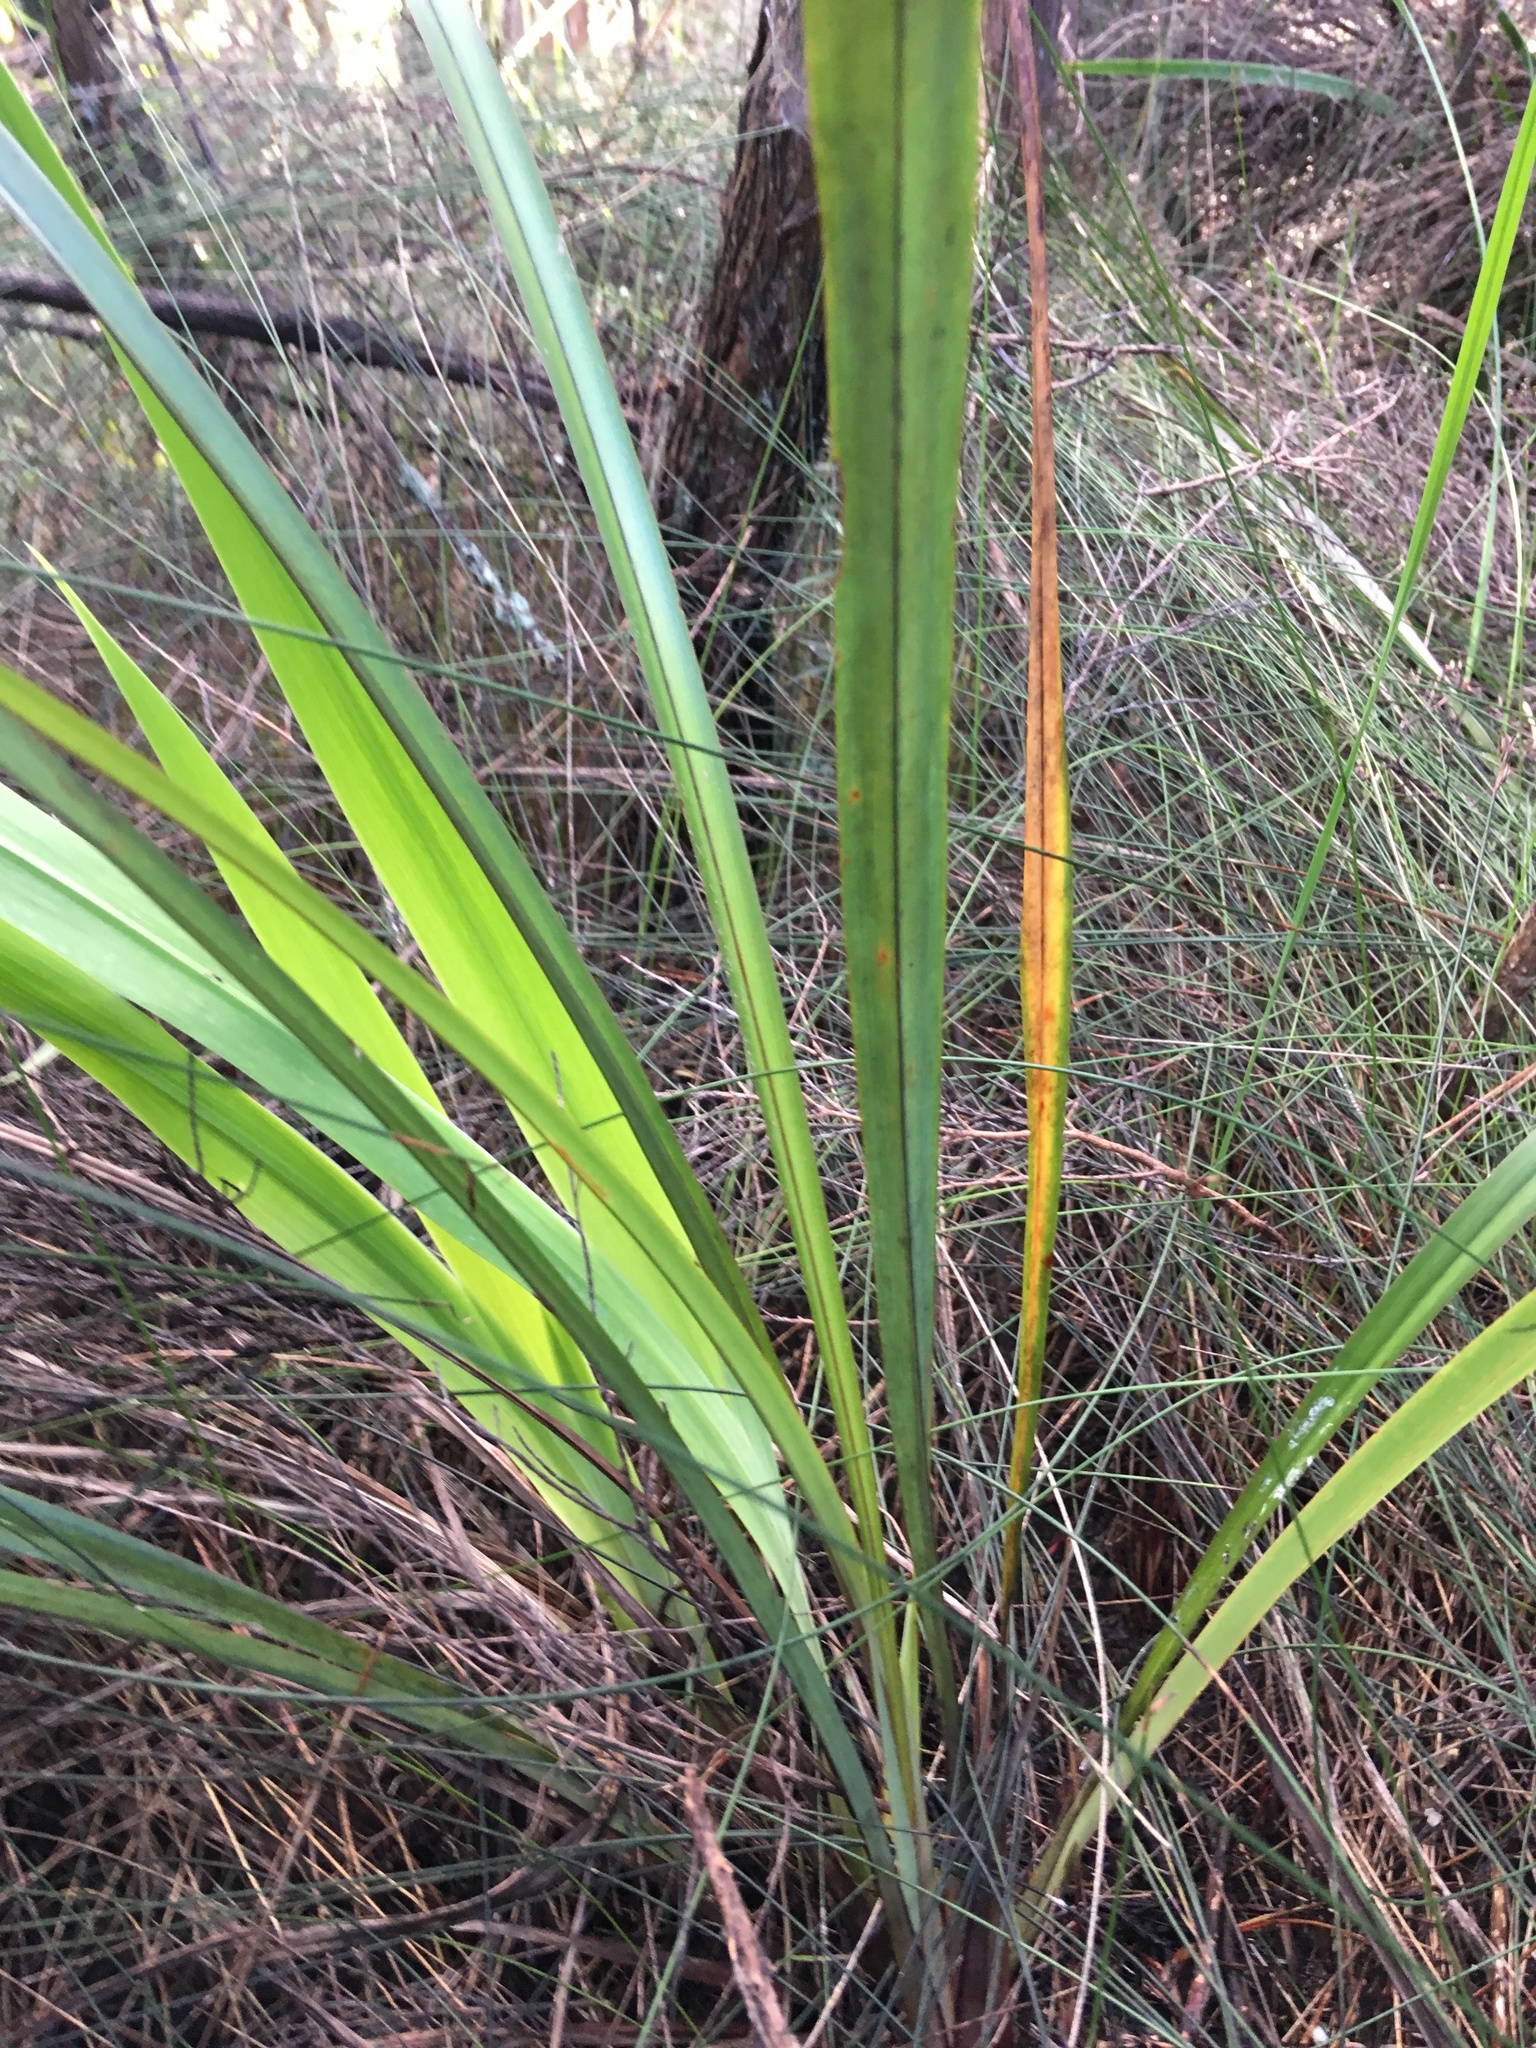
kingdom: Plantae
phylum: Tracheophyta
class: Liliopsida
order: Asparagales
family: Asphodelaceae
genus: Phormium
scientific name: Phormium tenax
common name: New zealand flax
